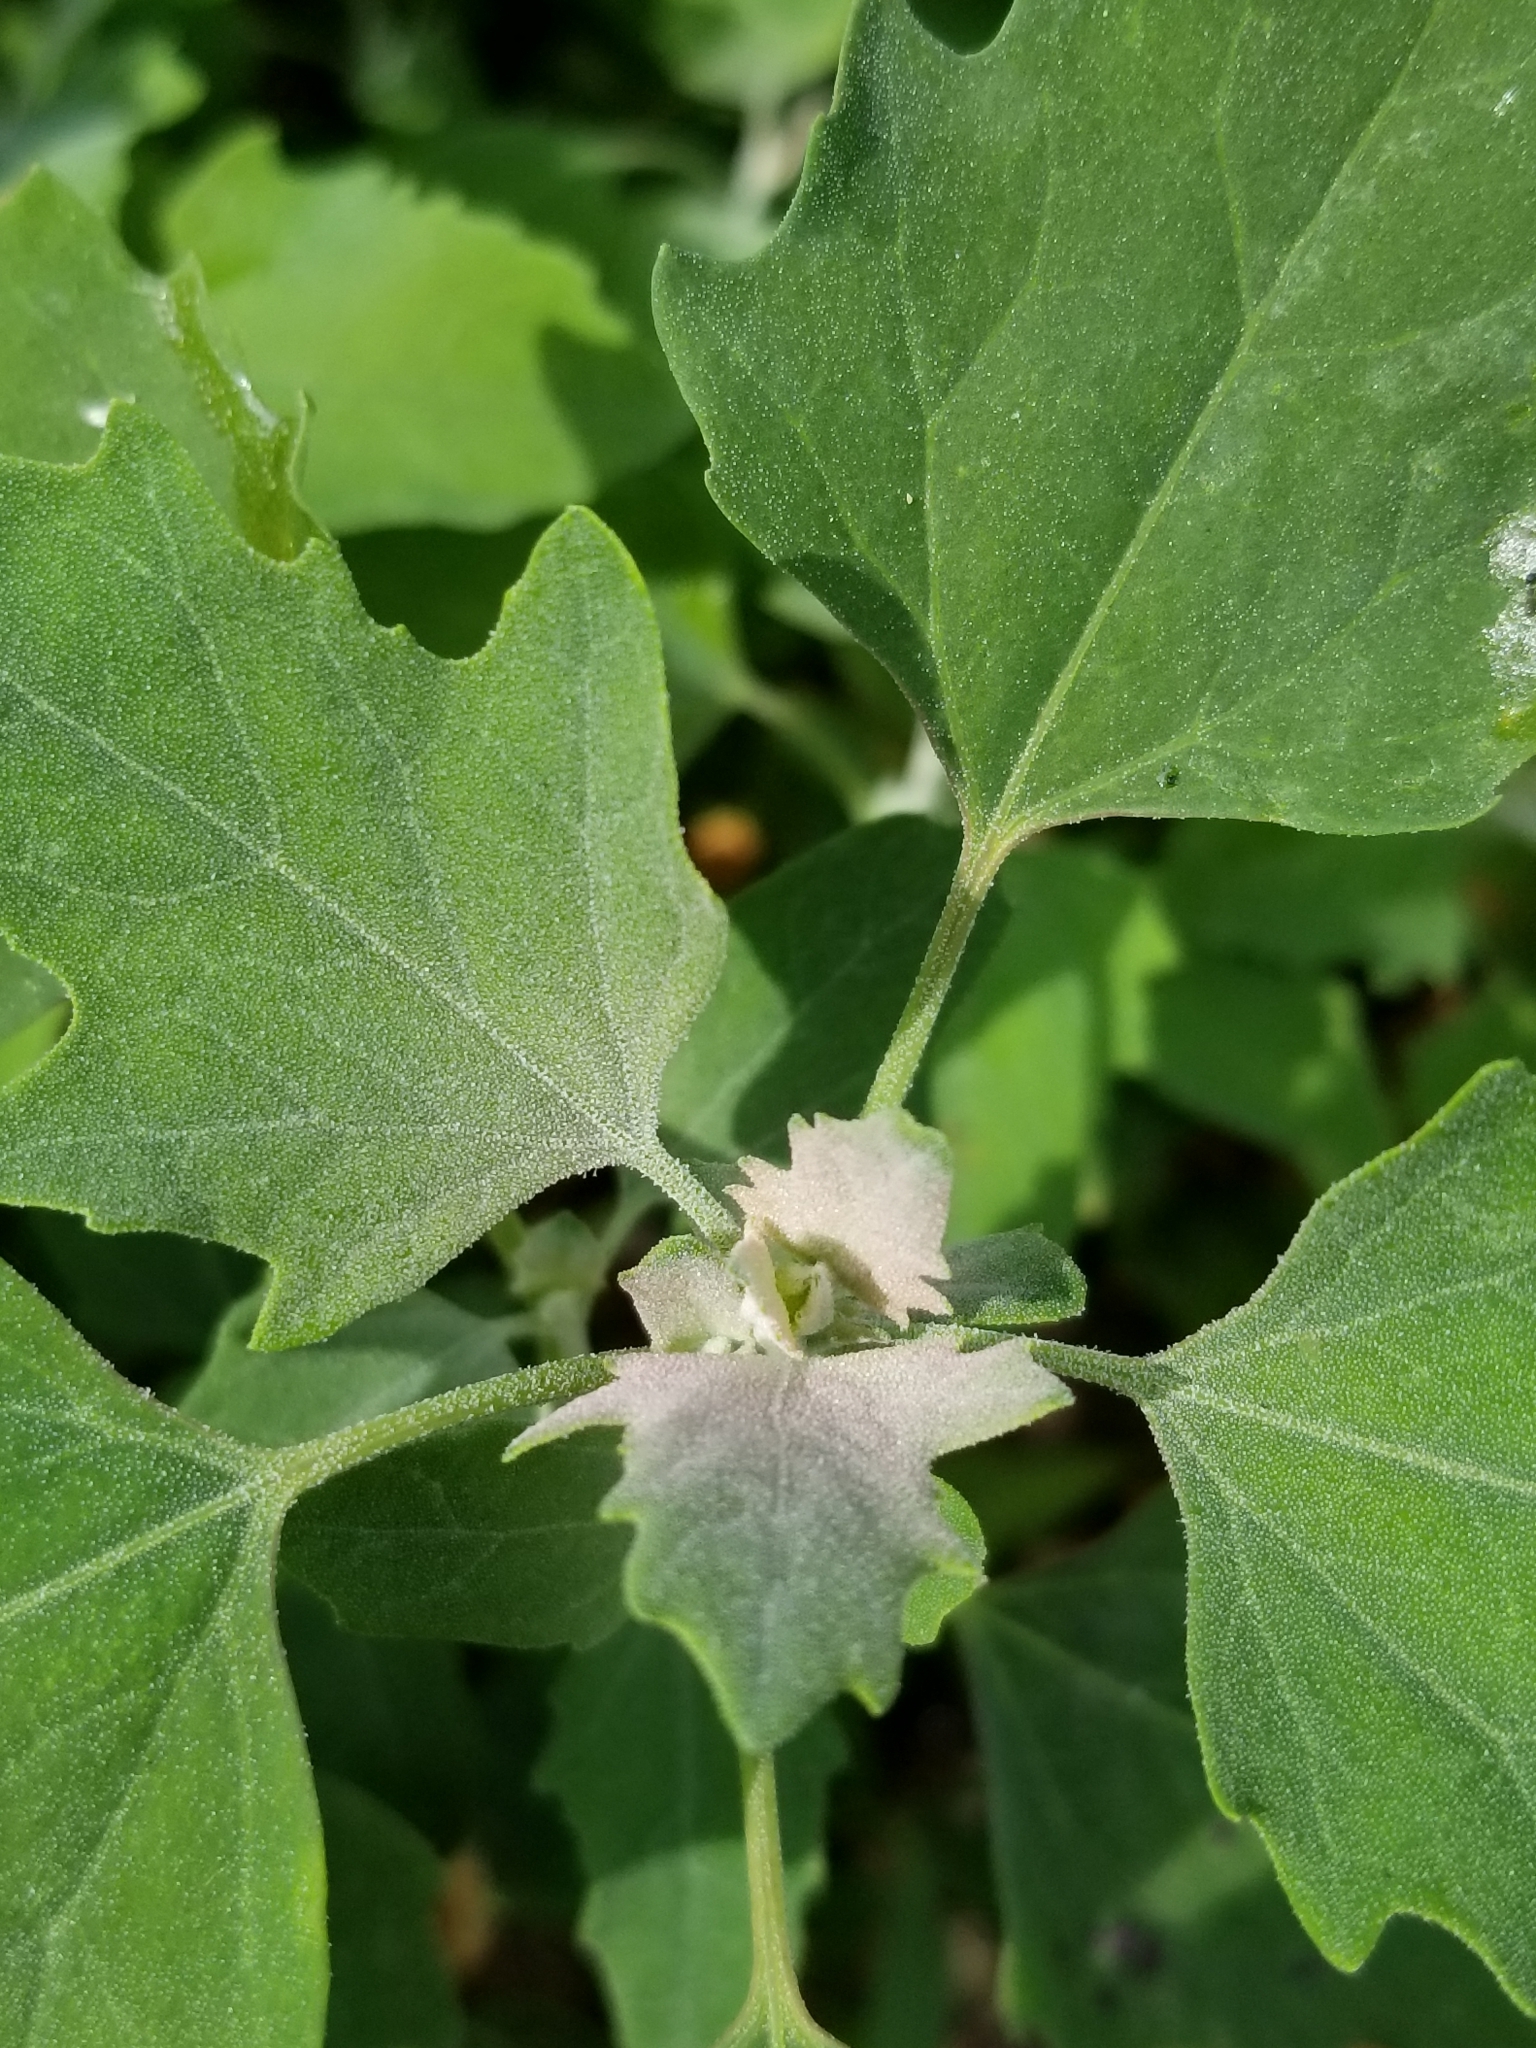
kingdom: Plantae
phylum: Tracheophyta
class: Magnoliopsida
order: Caryophyllales
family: Amaranthaceae
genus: Chenopodium
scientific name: Chenopodium album
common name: Fat-hen
